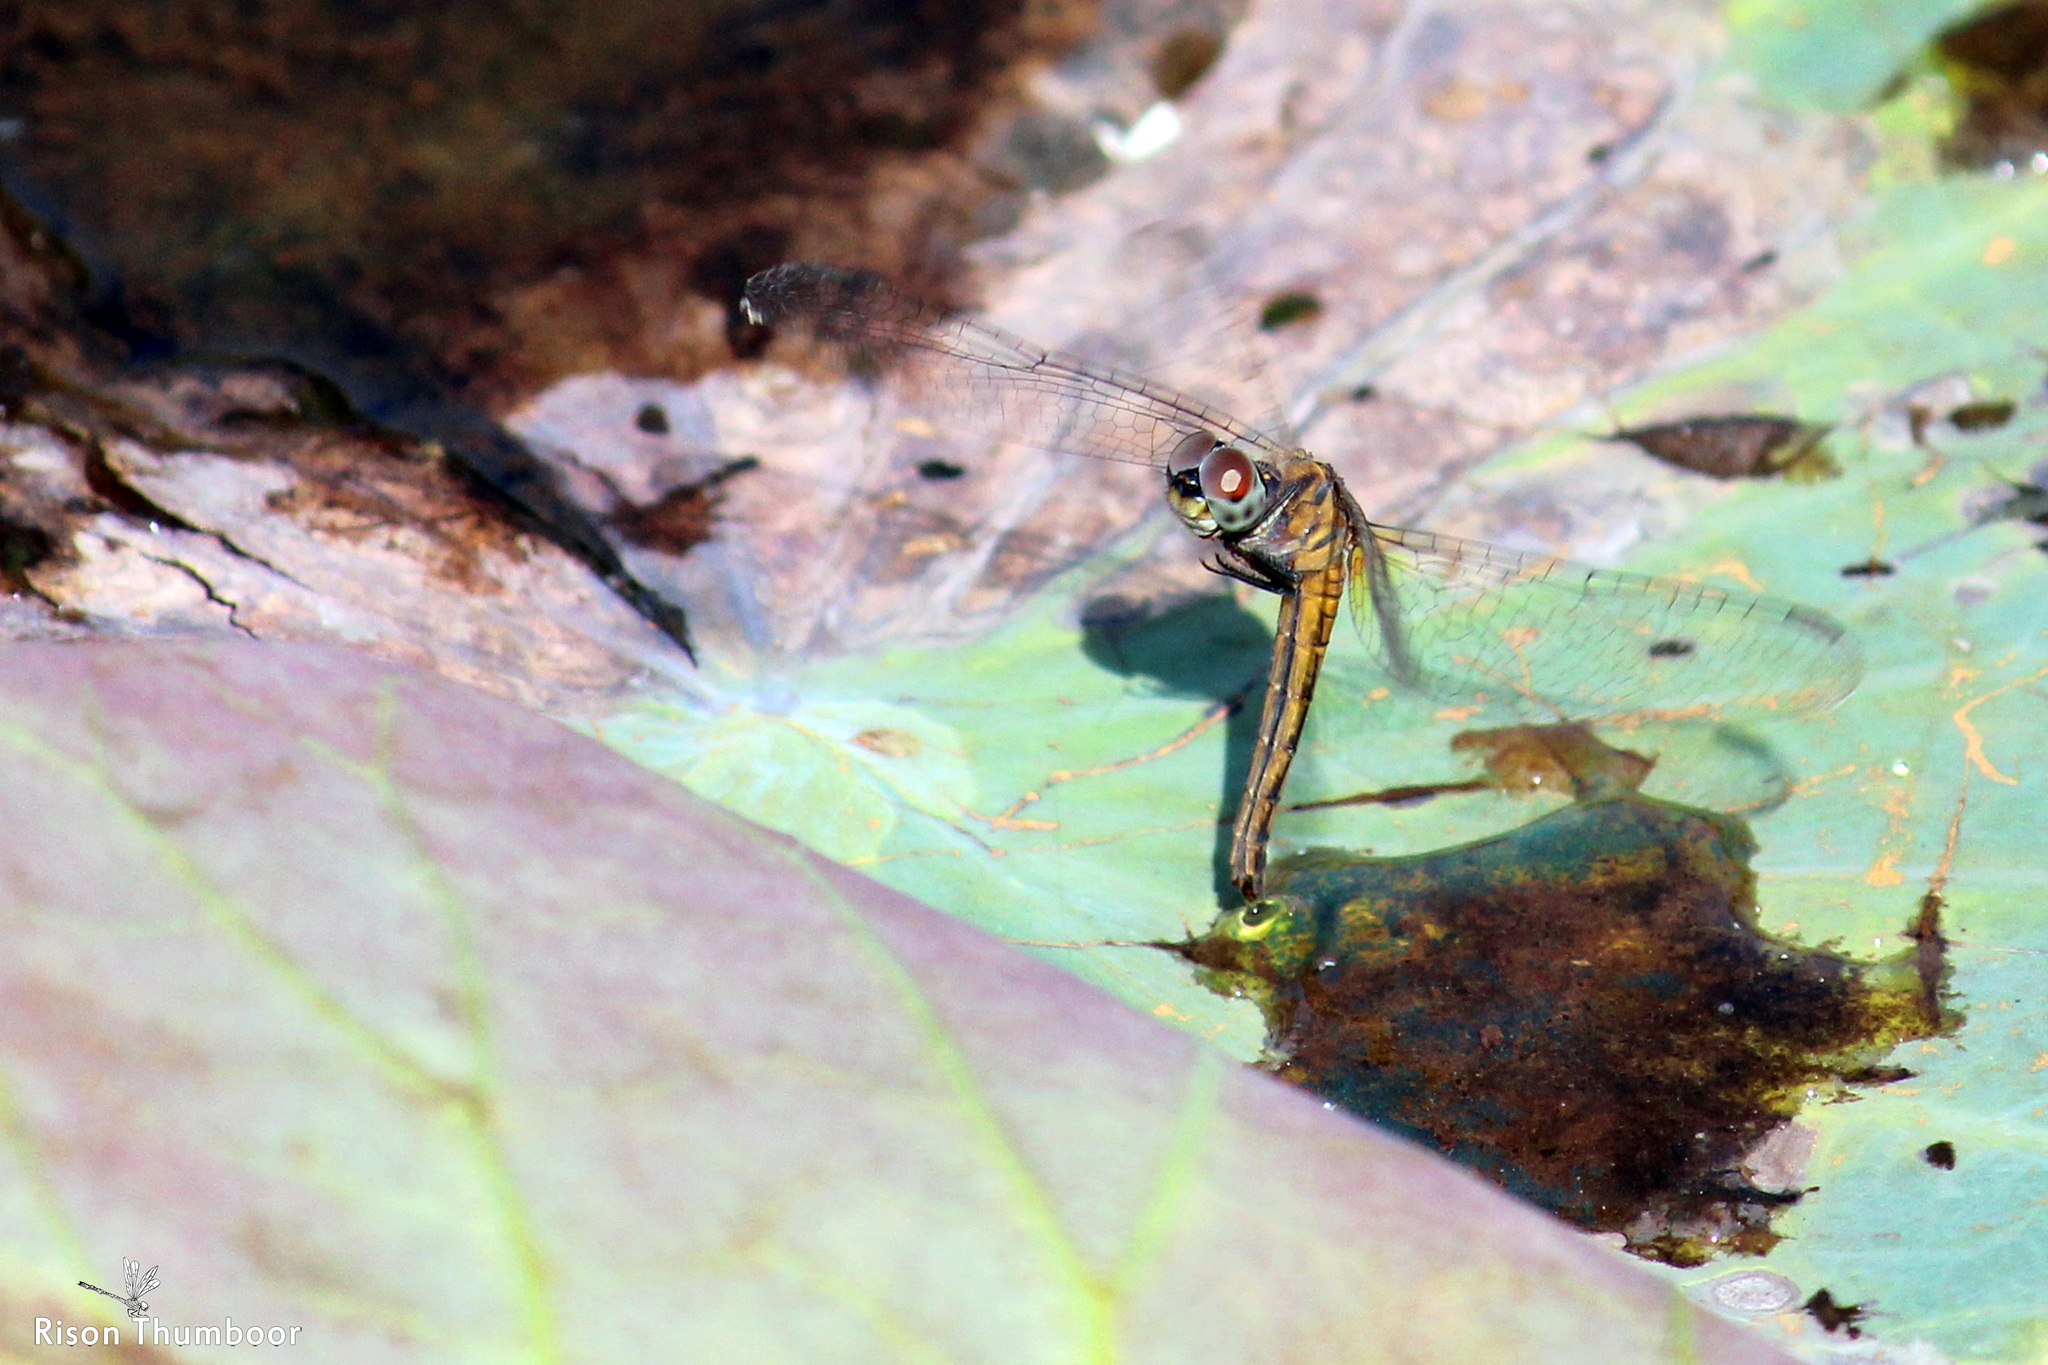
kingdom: Animalia
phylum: Arthropoda
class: Insecta
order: Odonata
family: Libellulidae
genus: Brachydiplax
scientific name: Brachydiplax chalybea
